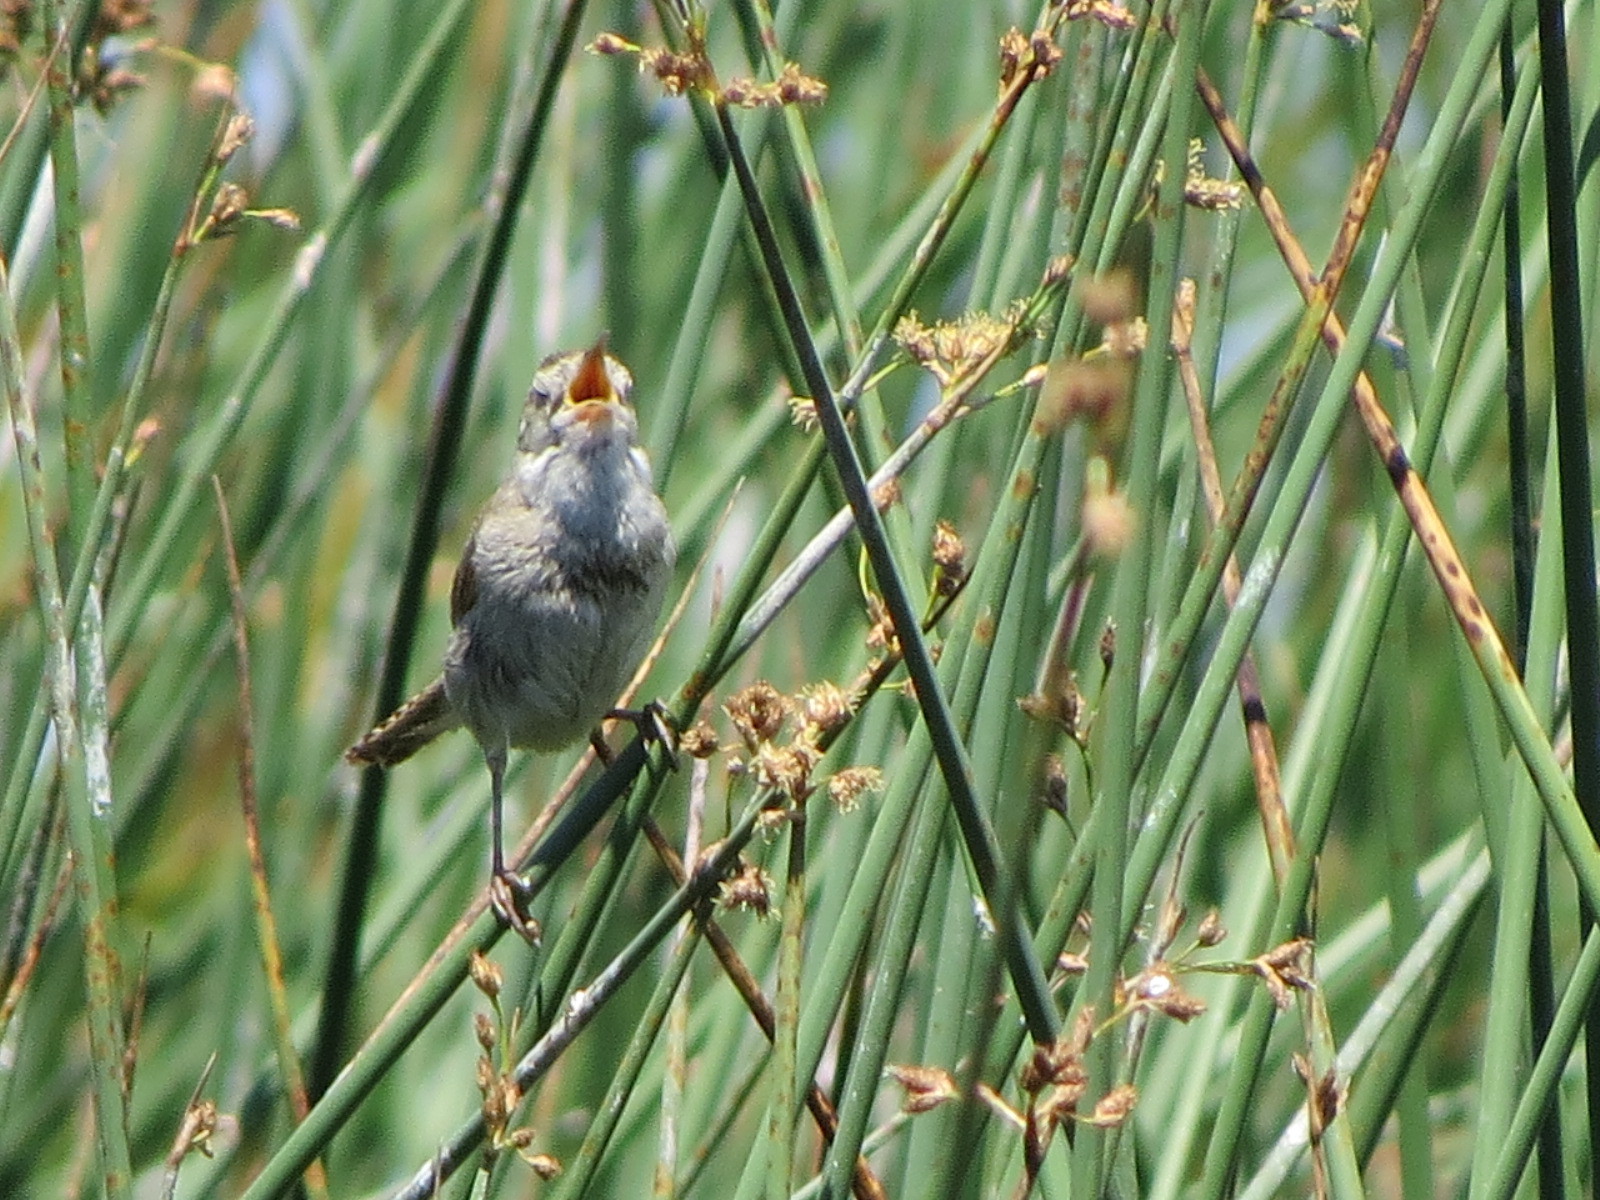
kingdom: Animalia
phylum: Chordata
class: Aves
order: Passeriformes
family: Troglodytidae
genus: Cistothorus
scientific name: Cistothorus palustris
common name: Marsh wren
